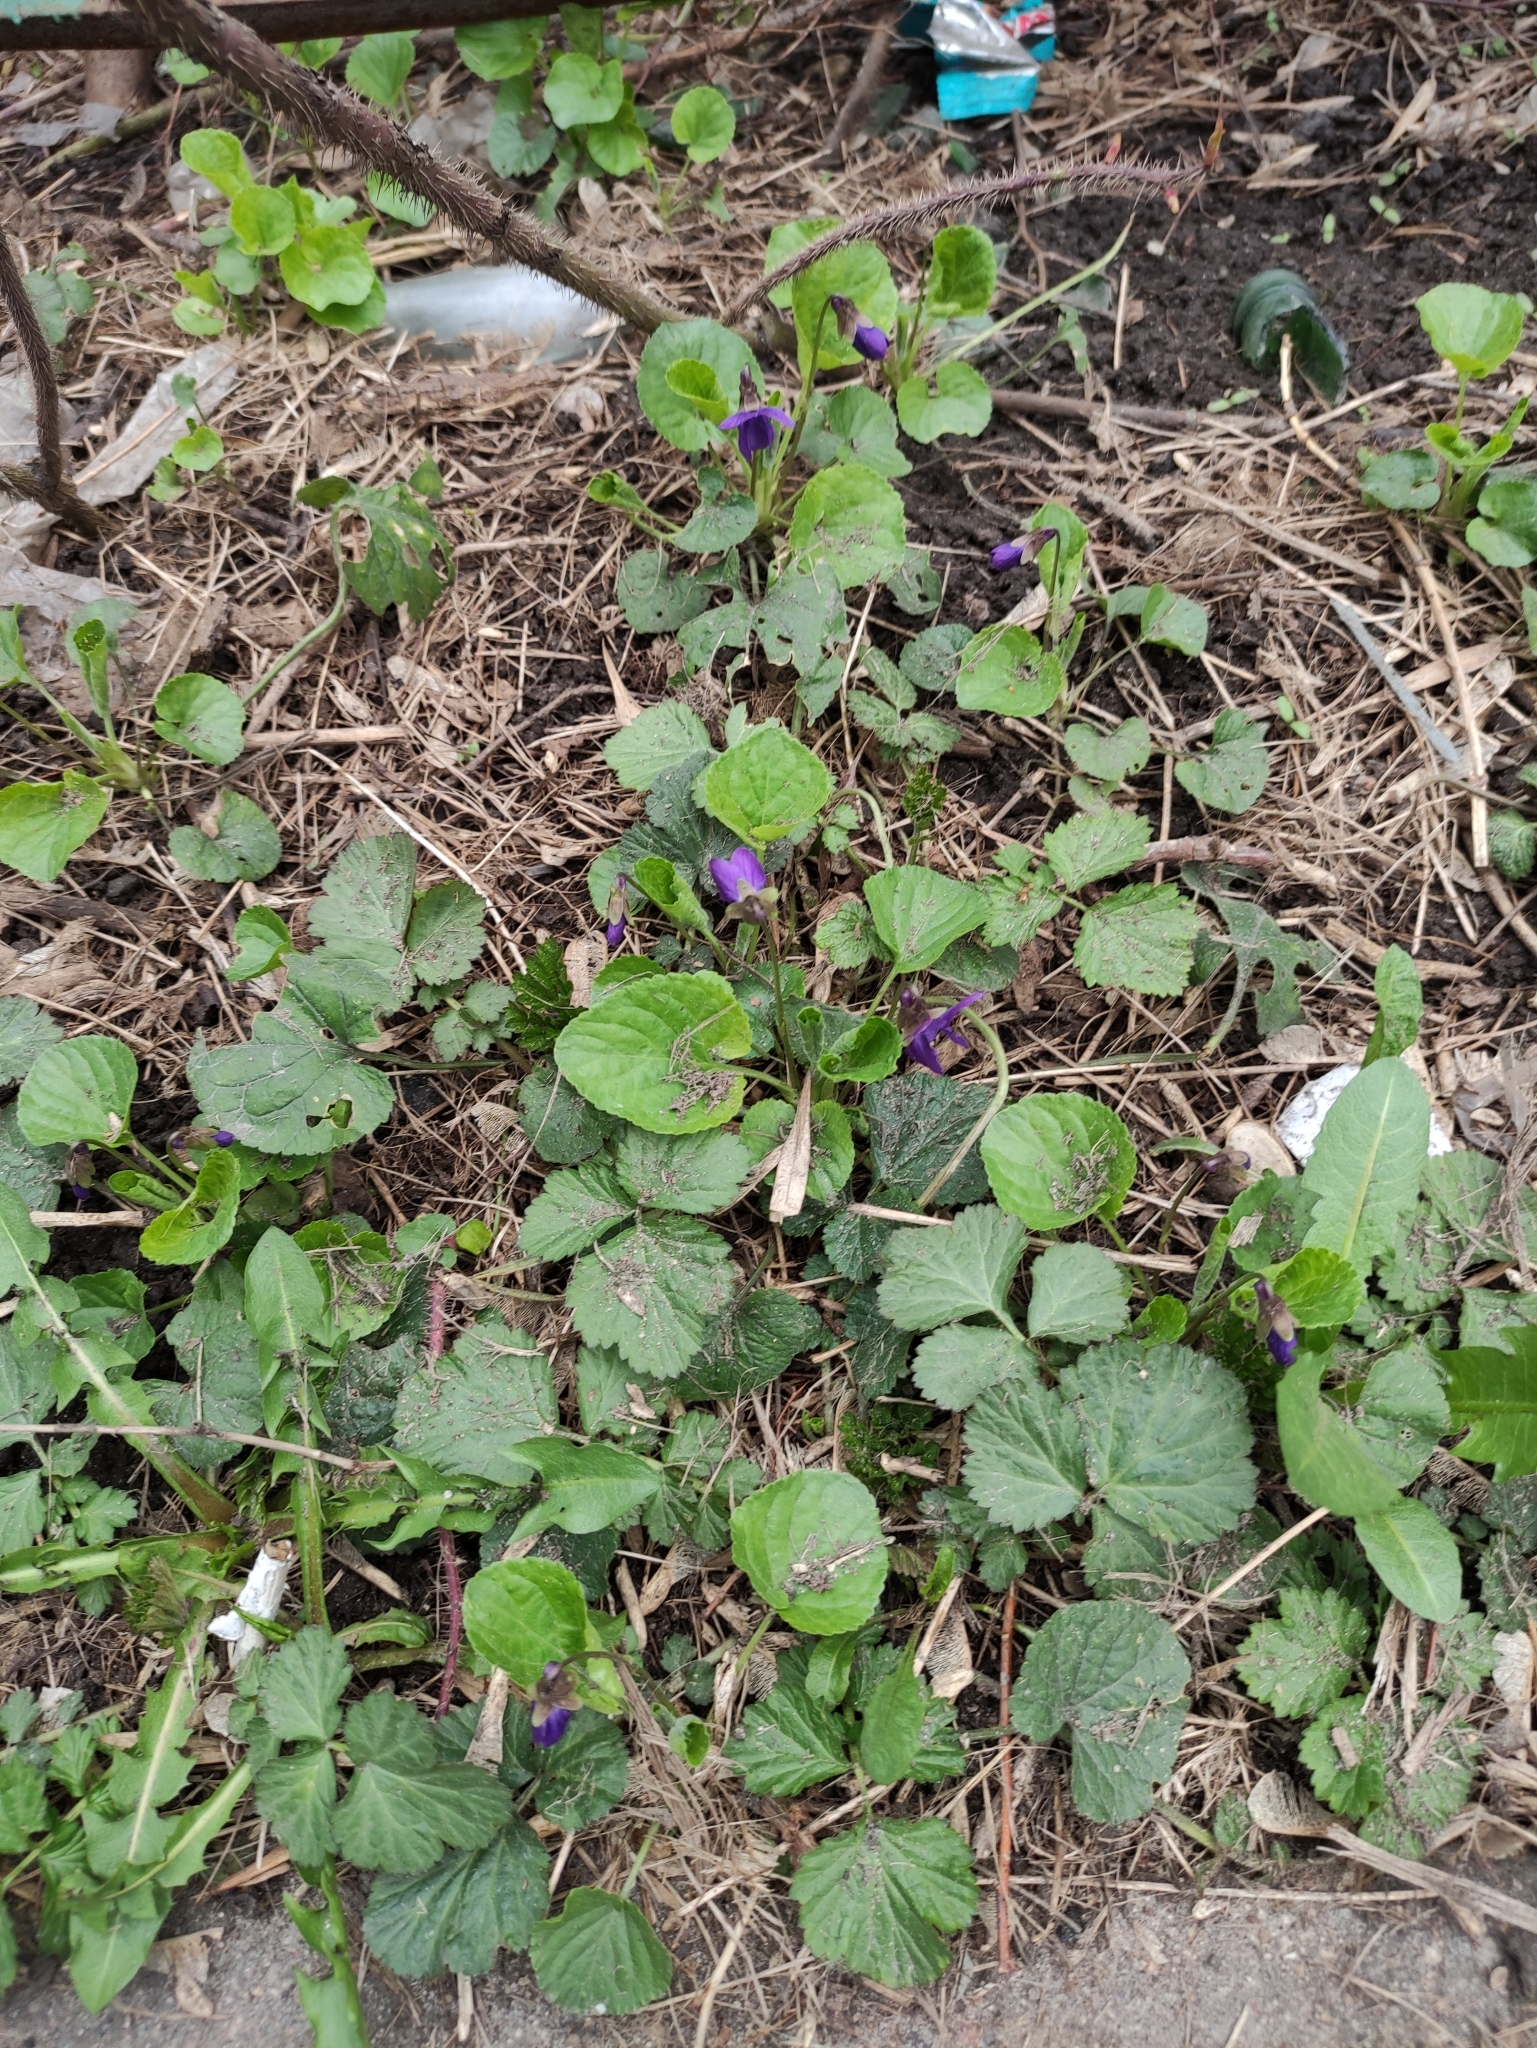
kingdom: Plantae
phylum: Tracheophyta
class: Magnoliopsida
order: Malpighiales
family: Violaceae
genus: Viola
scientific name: Viola odorata
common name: Sweet violet
